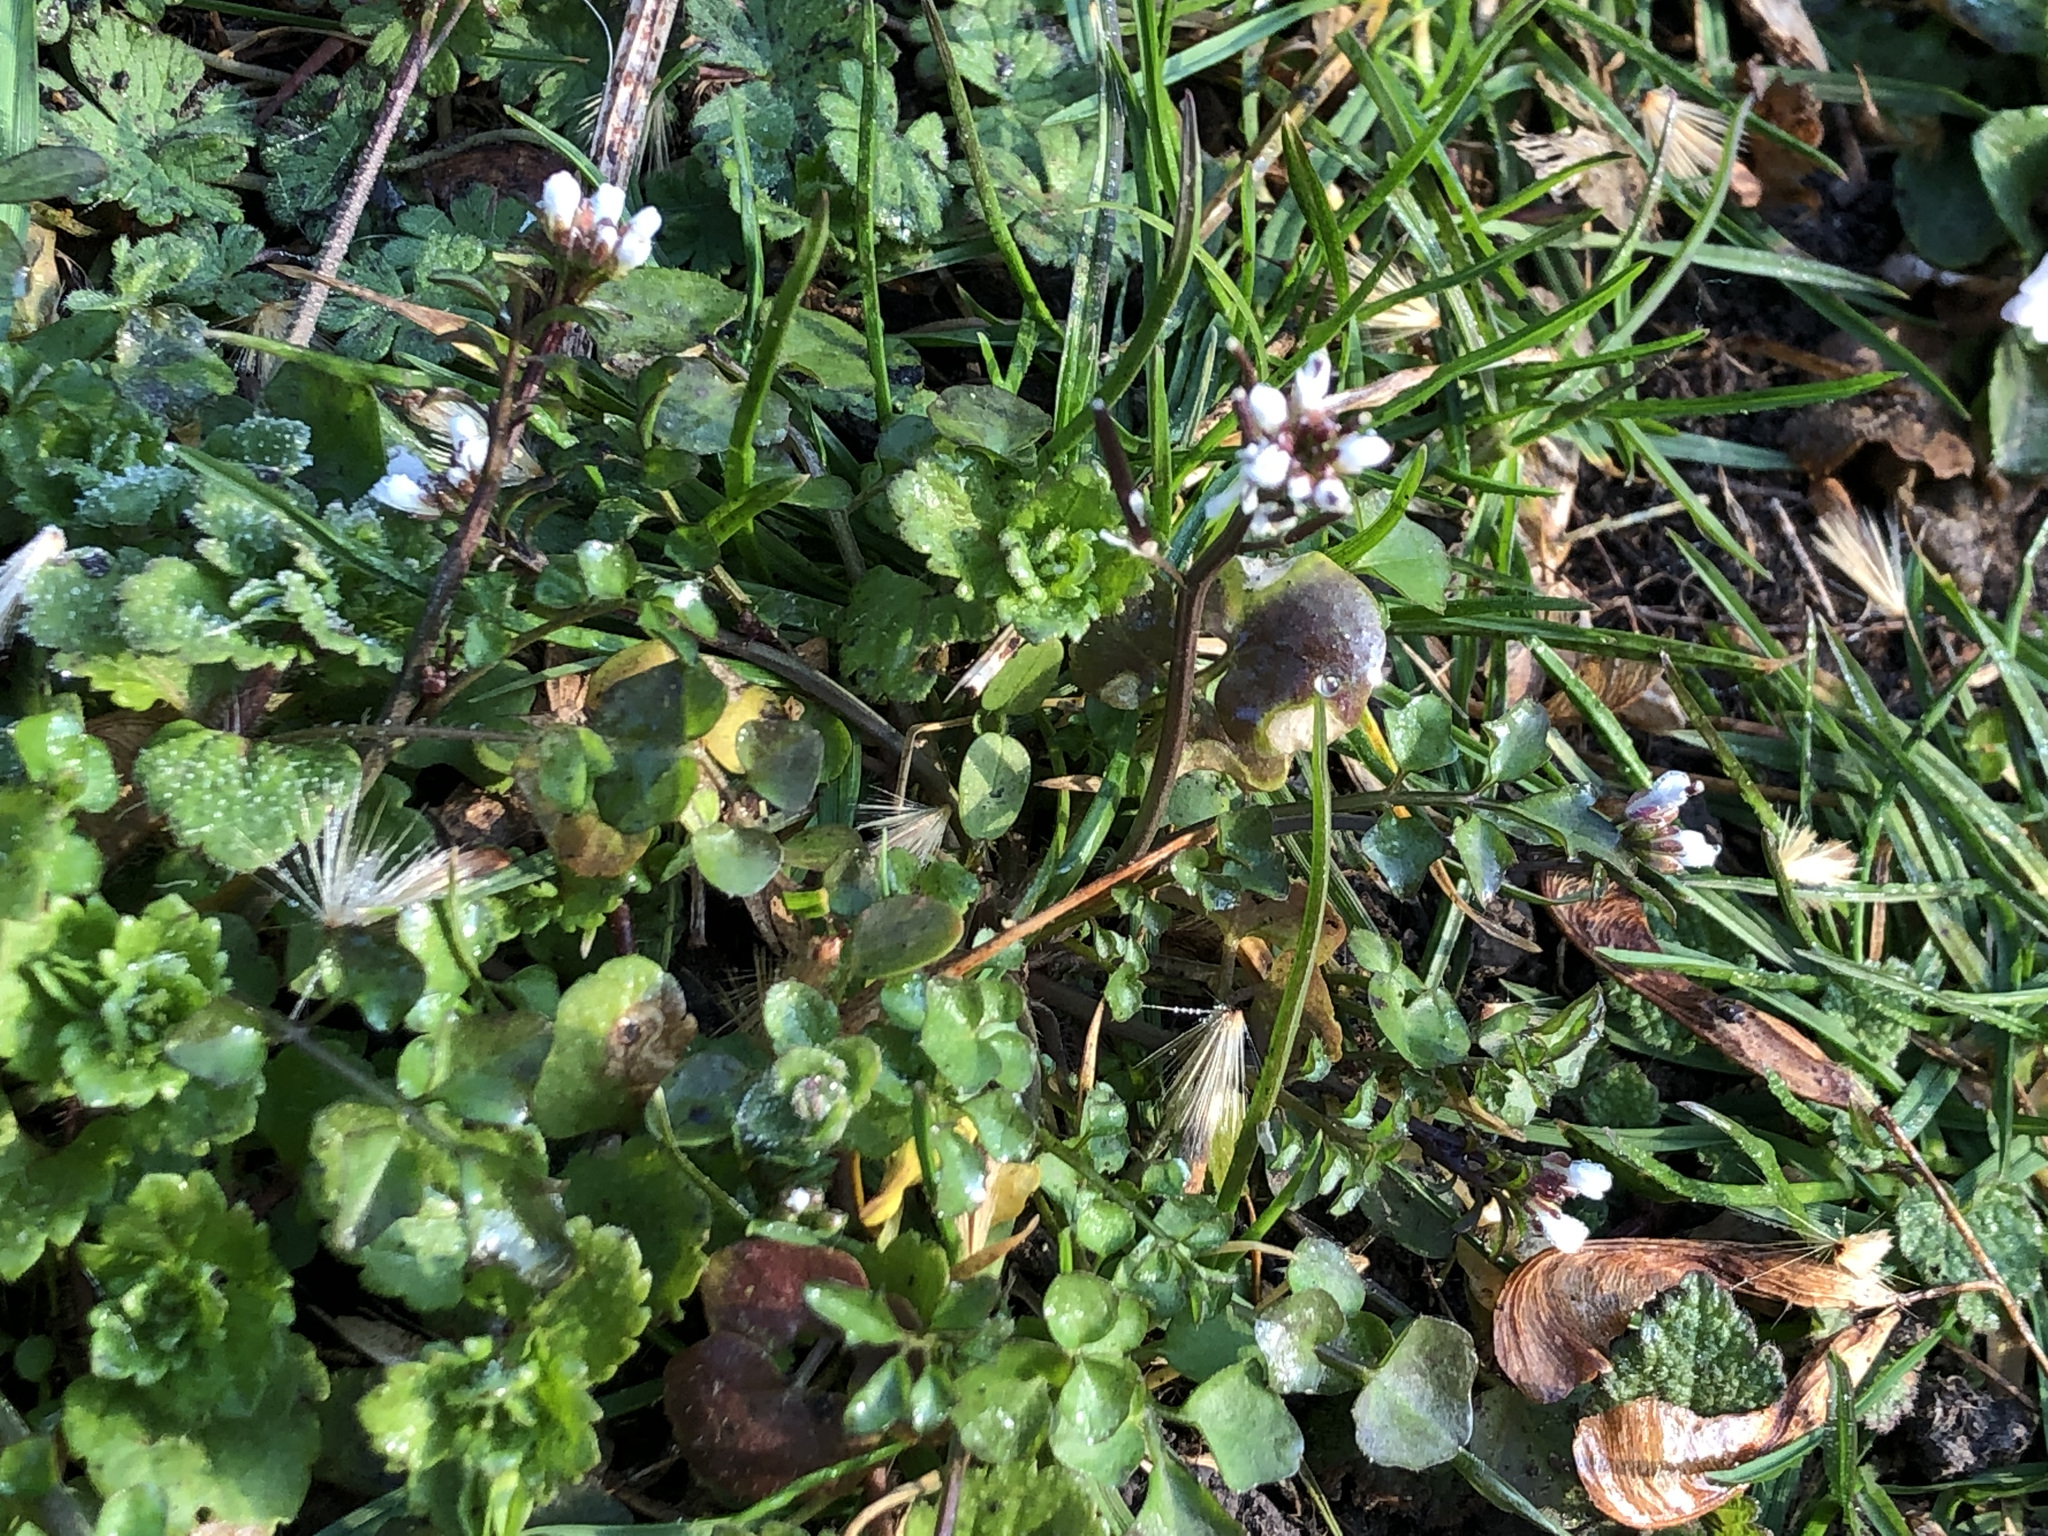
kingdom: Plantae
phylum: Tracheophyta
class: Magnoliopsida
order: Brassicales
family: Brassicaceae
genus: Cardamine
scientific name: Cardamine hirsuta
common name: Hairy bittercress
